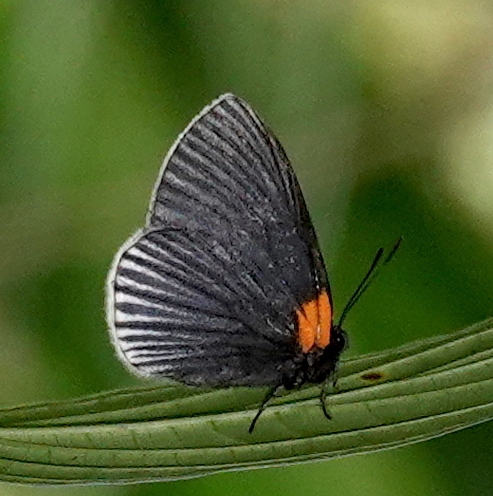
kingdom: Animalia
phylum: Arthropoda
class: Insecta
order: Lepidoptera
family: Riodinidae
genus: Hades
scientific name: Hades noctula
